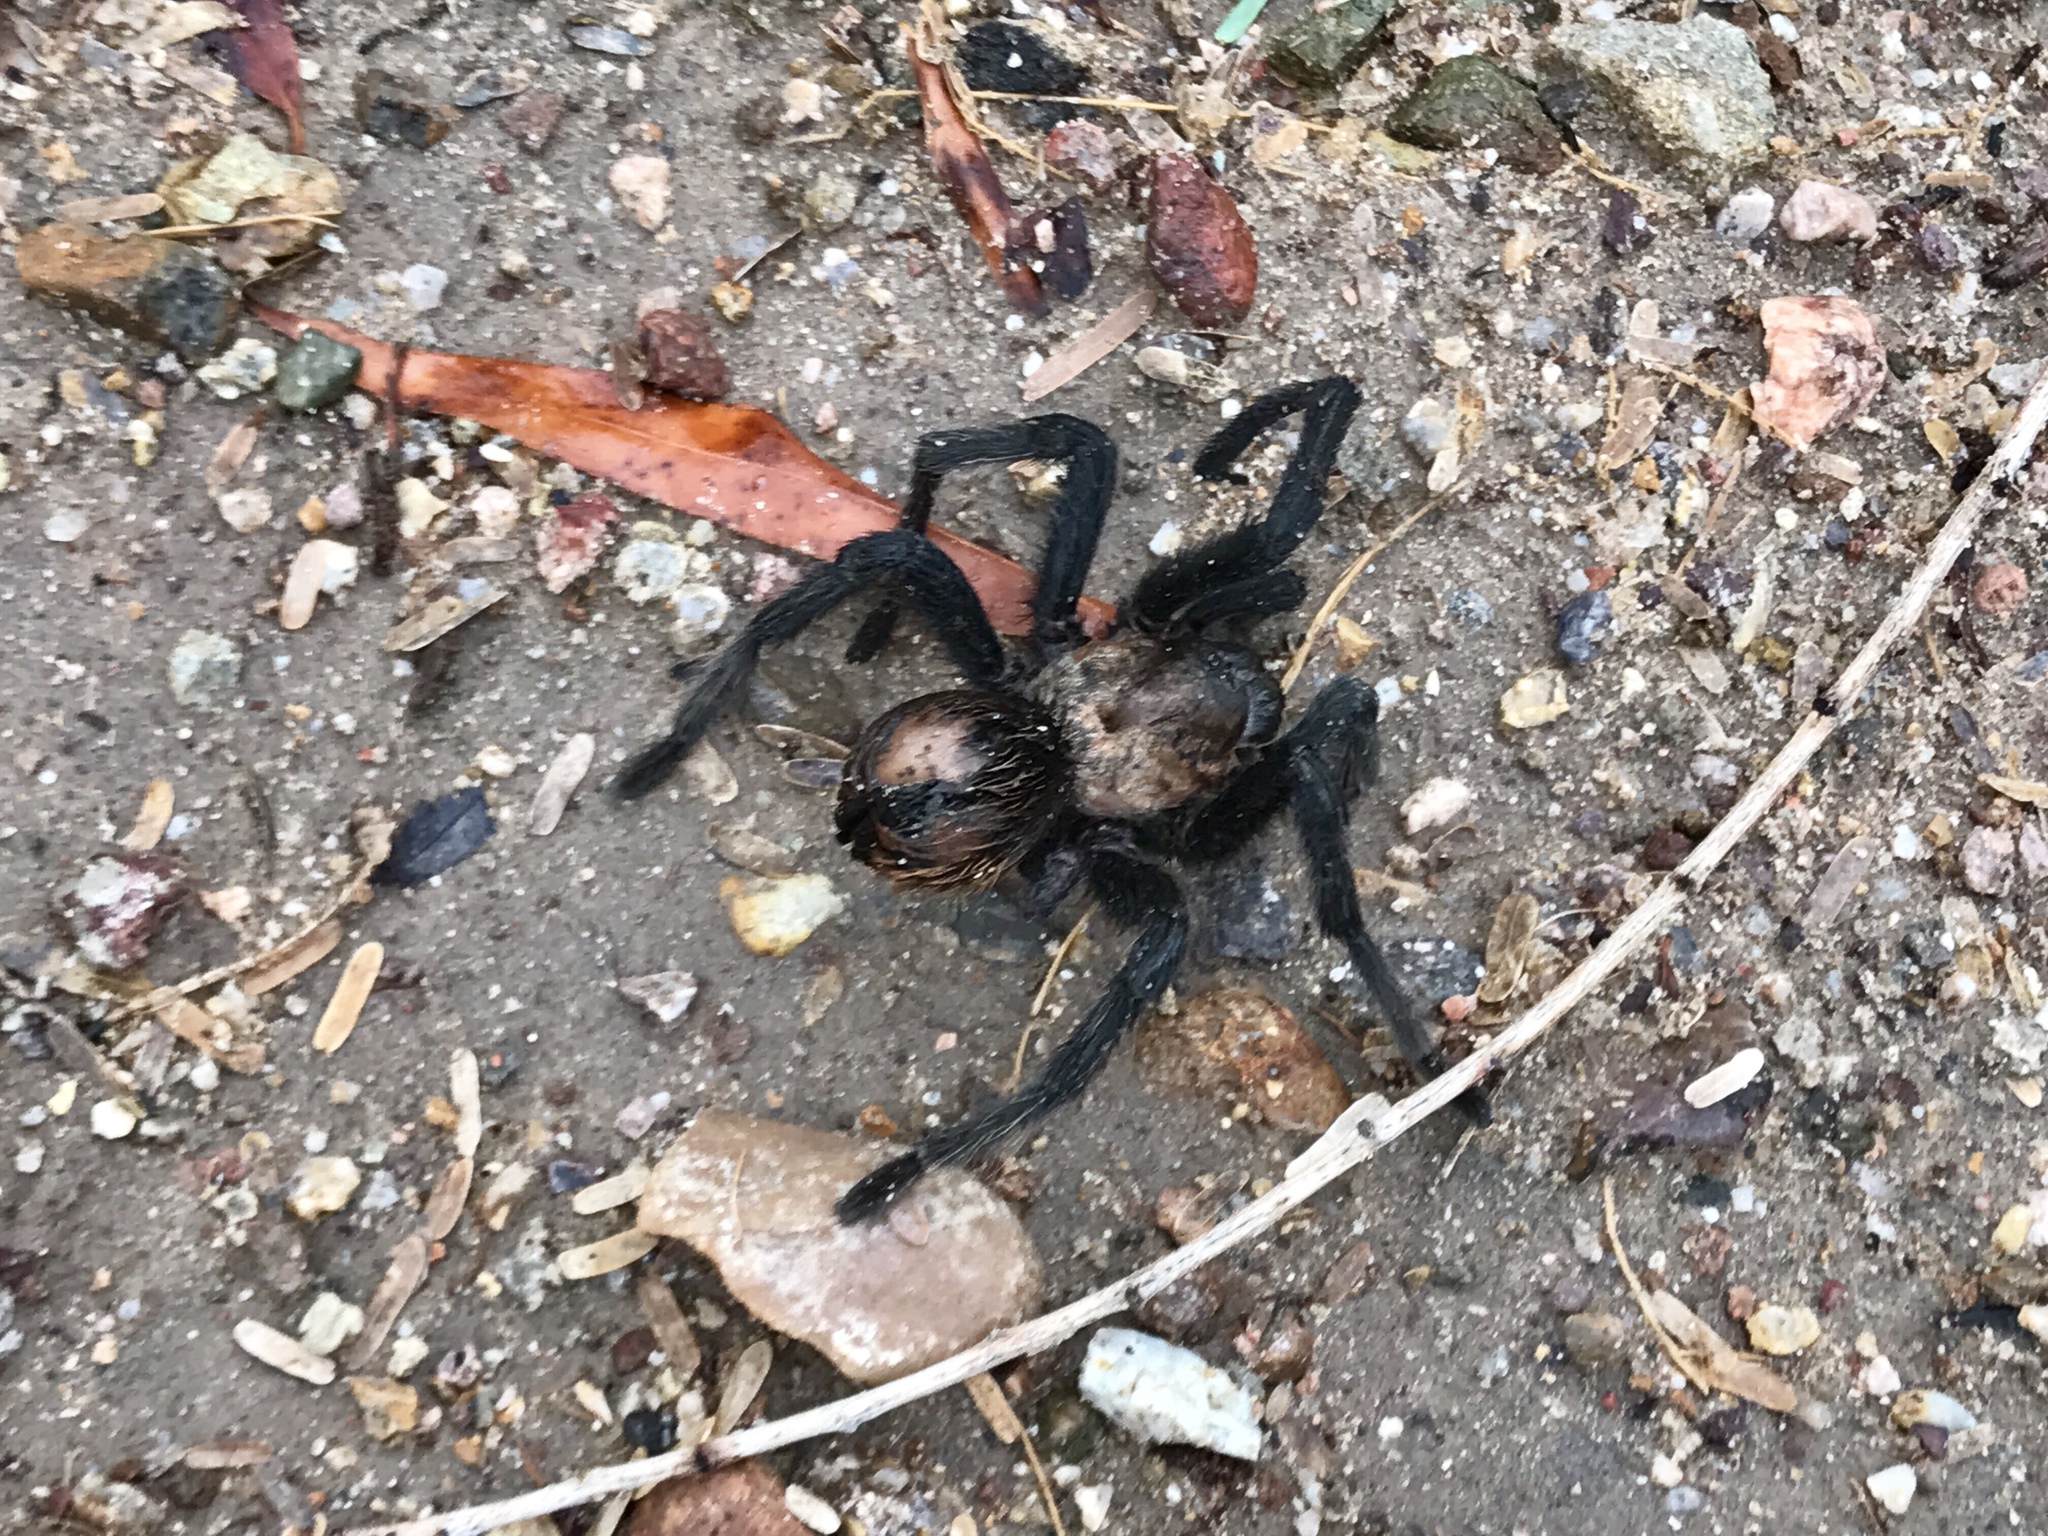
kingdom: Animalia
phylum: Arthropoda
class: Arachnida
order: Araneae
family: Theraphosidae
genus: Aphonopelma
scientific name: Aphonopelma chalcodes
